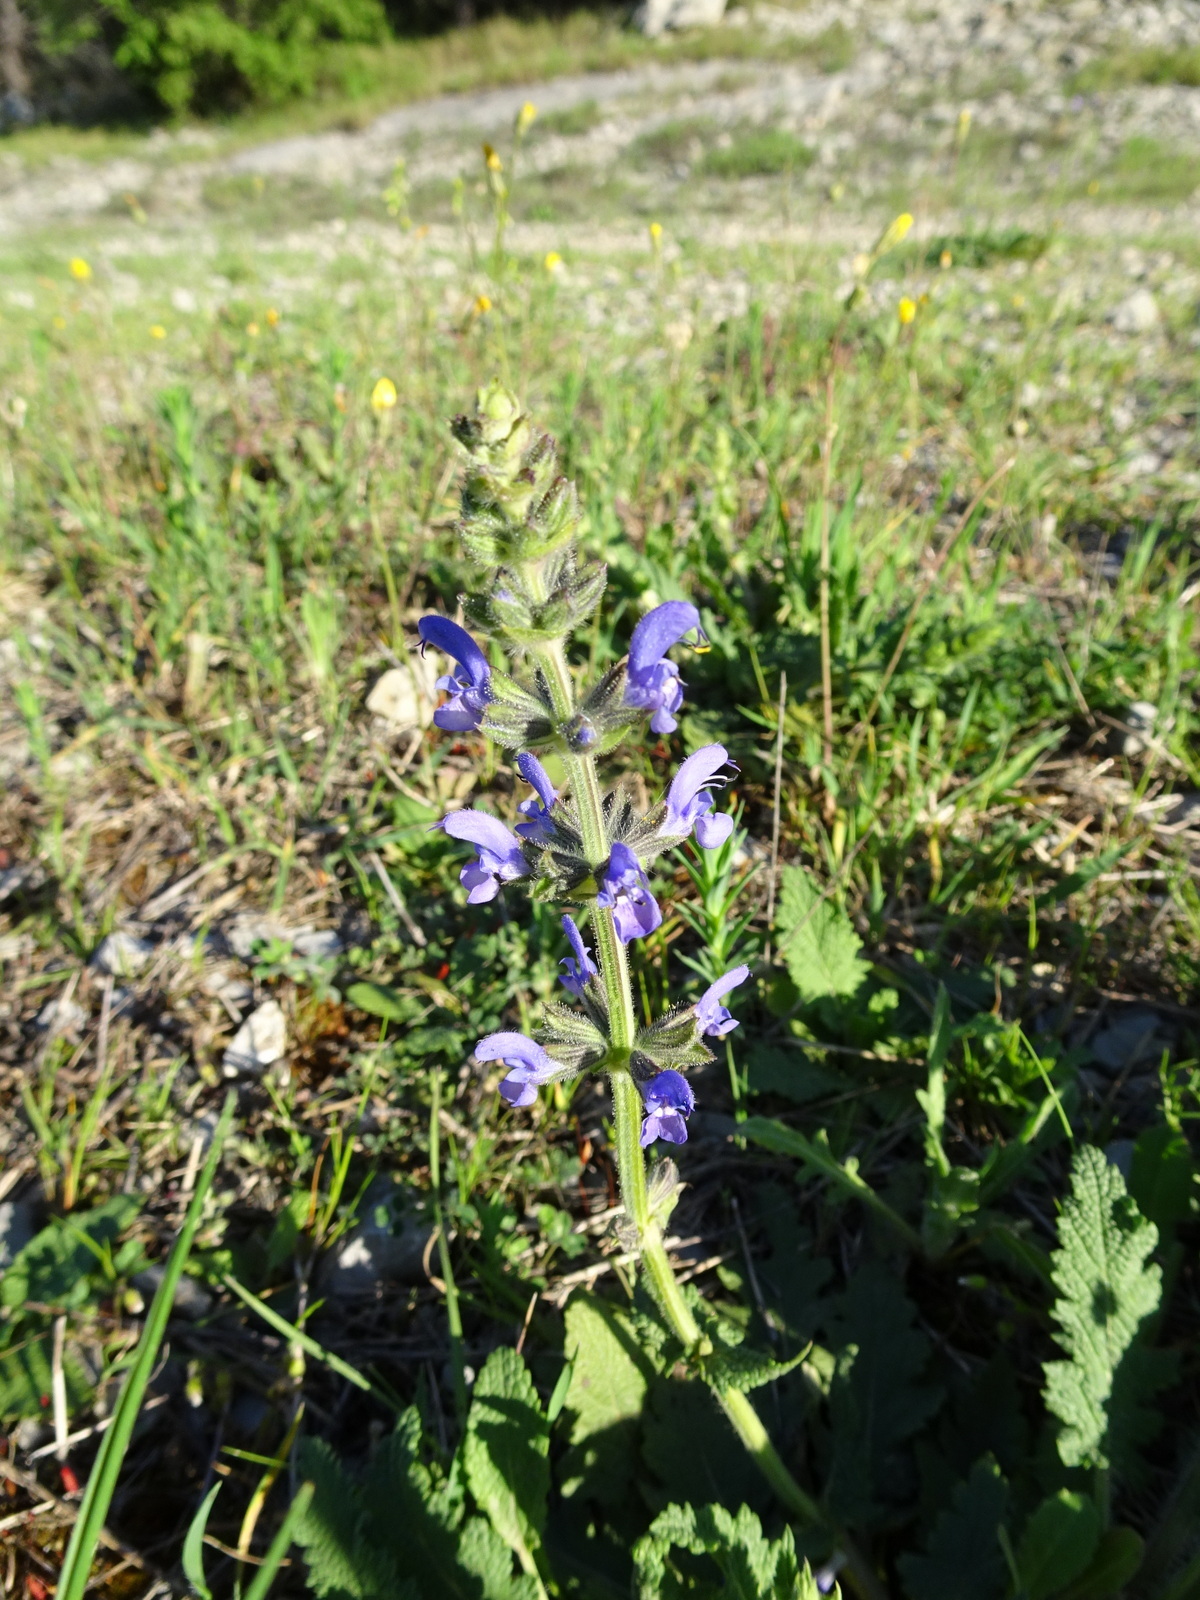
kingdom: Plantae
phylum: Tracheophyta
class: Magnoliopsida
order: Lamiales
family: Lamiaceae
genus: Salvia
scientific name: Salvia verbenaca
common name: Wild clary
